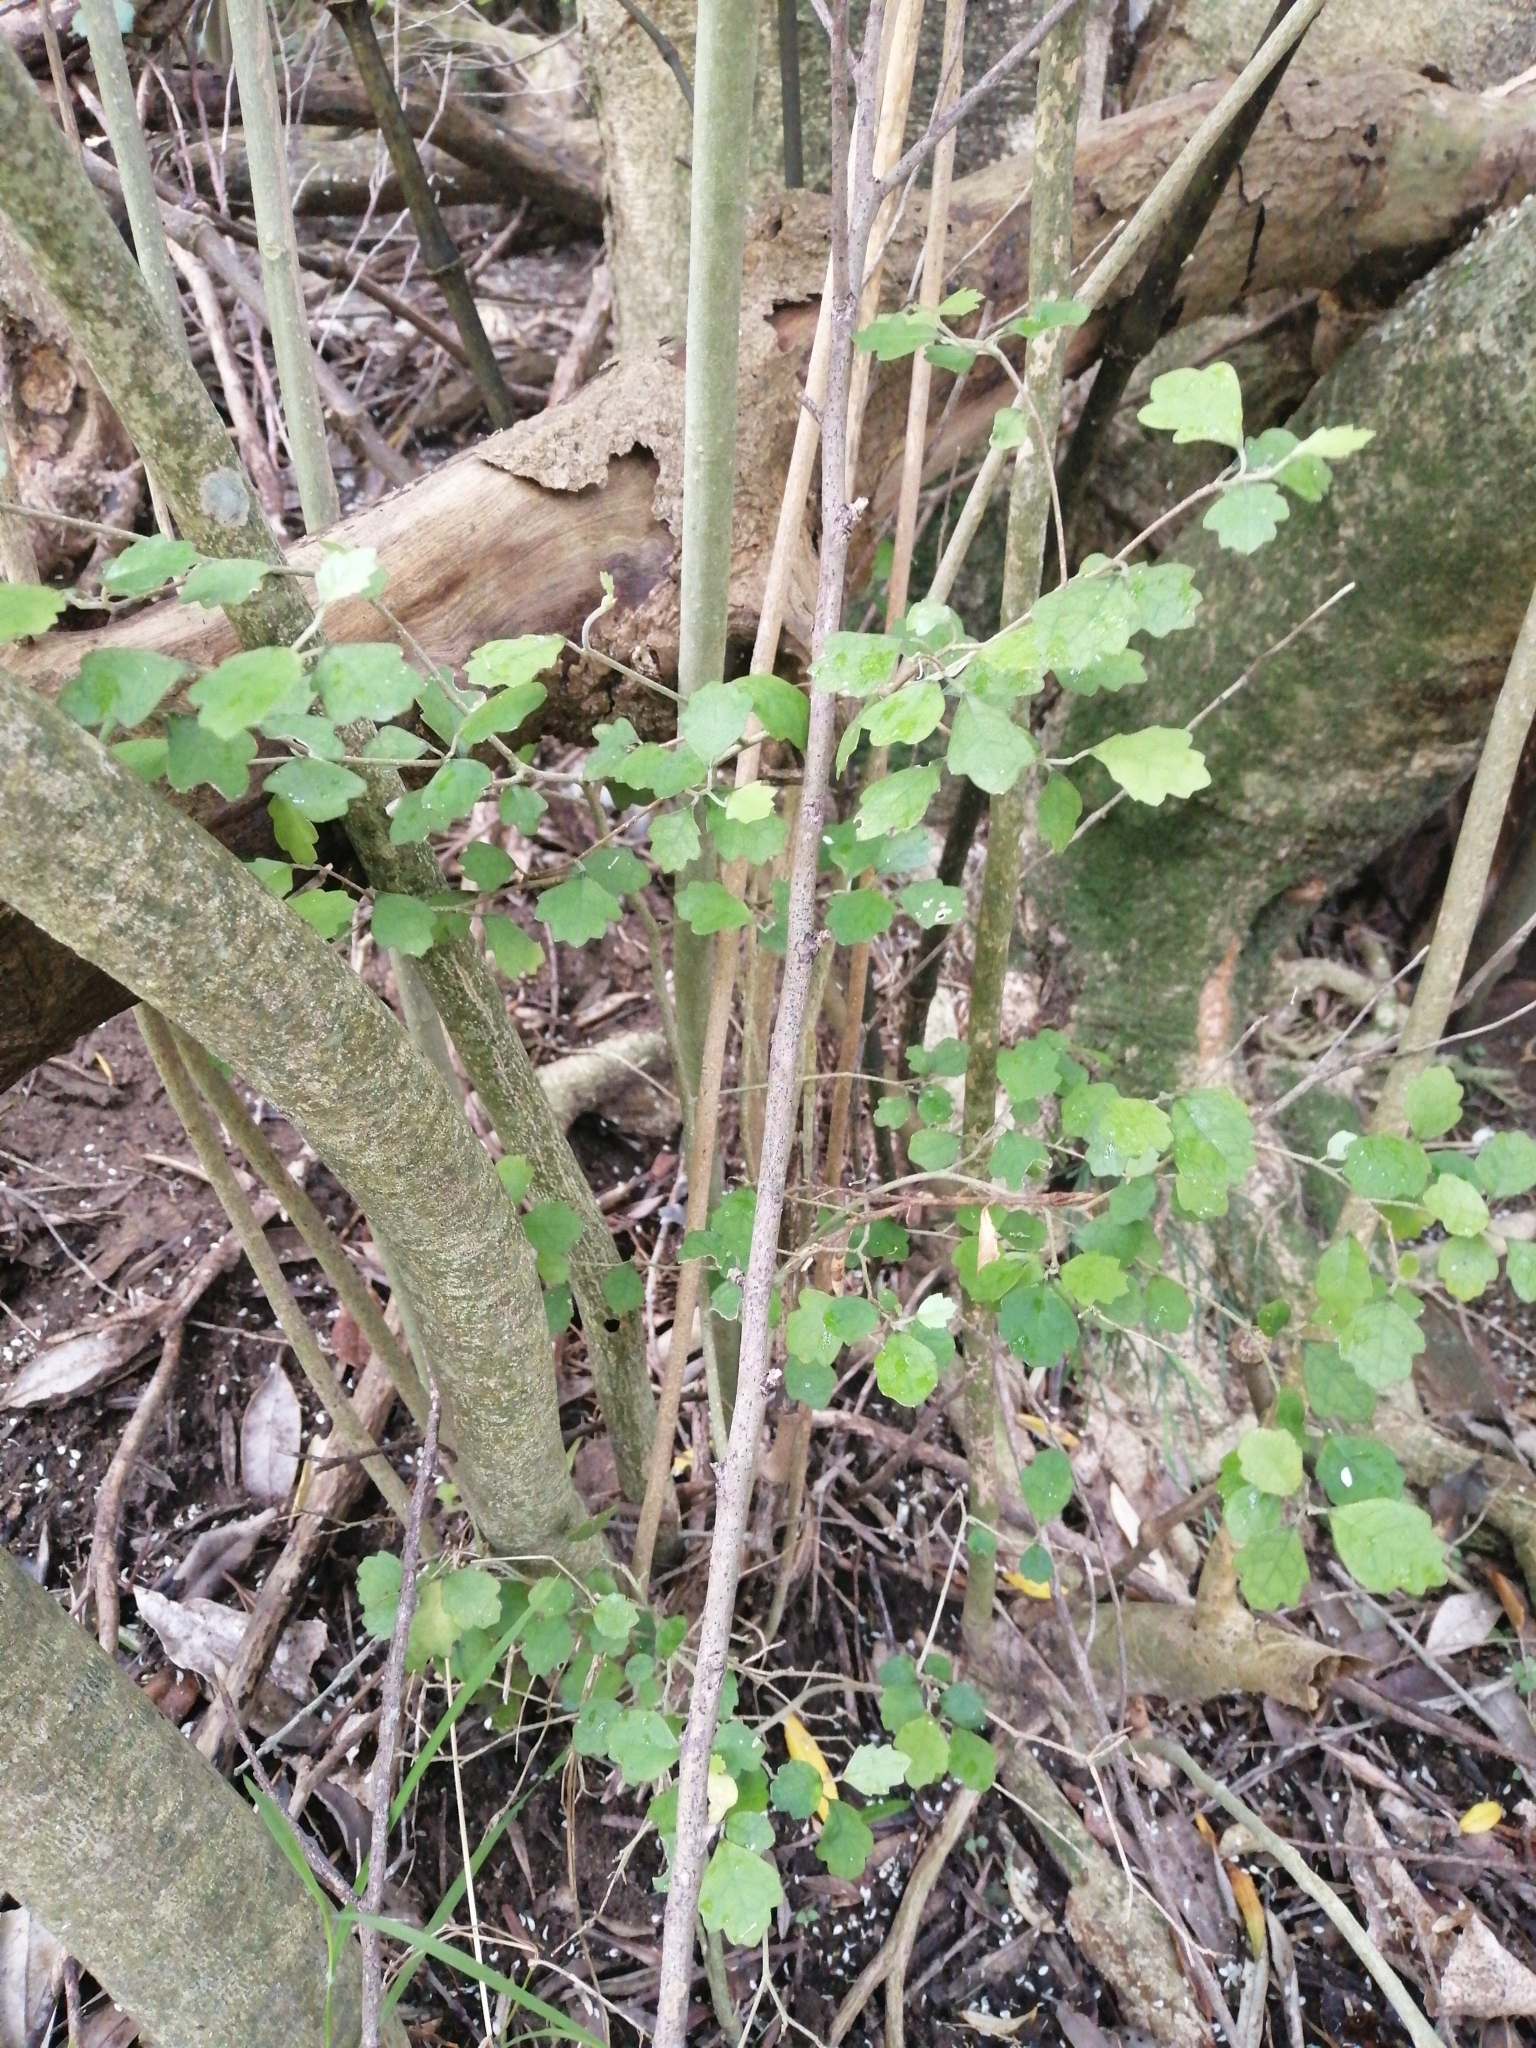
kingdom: Plantae
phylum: Tracheophyta
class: Magnoliopsida
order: Apiales
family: Pennantiaceae
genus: Pennantia
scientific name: Pennantia corymbosa
